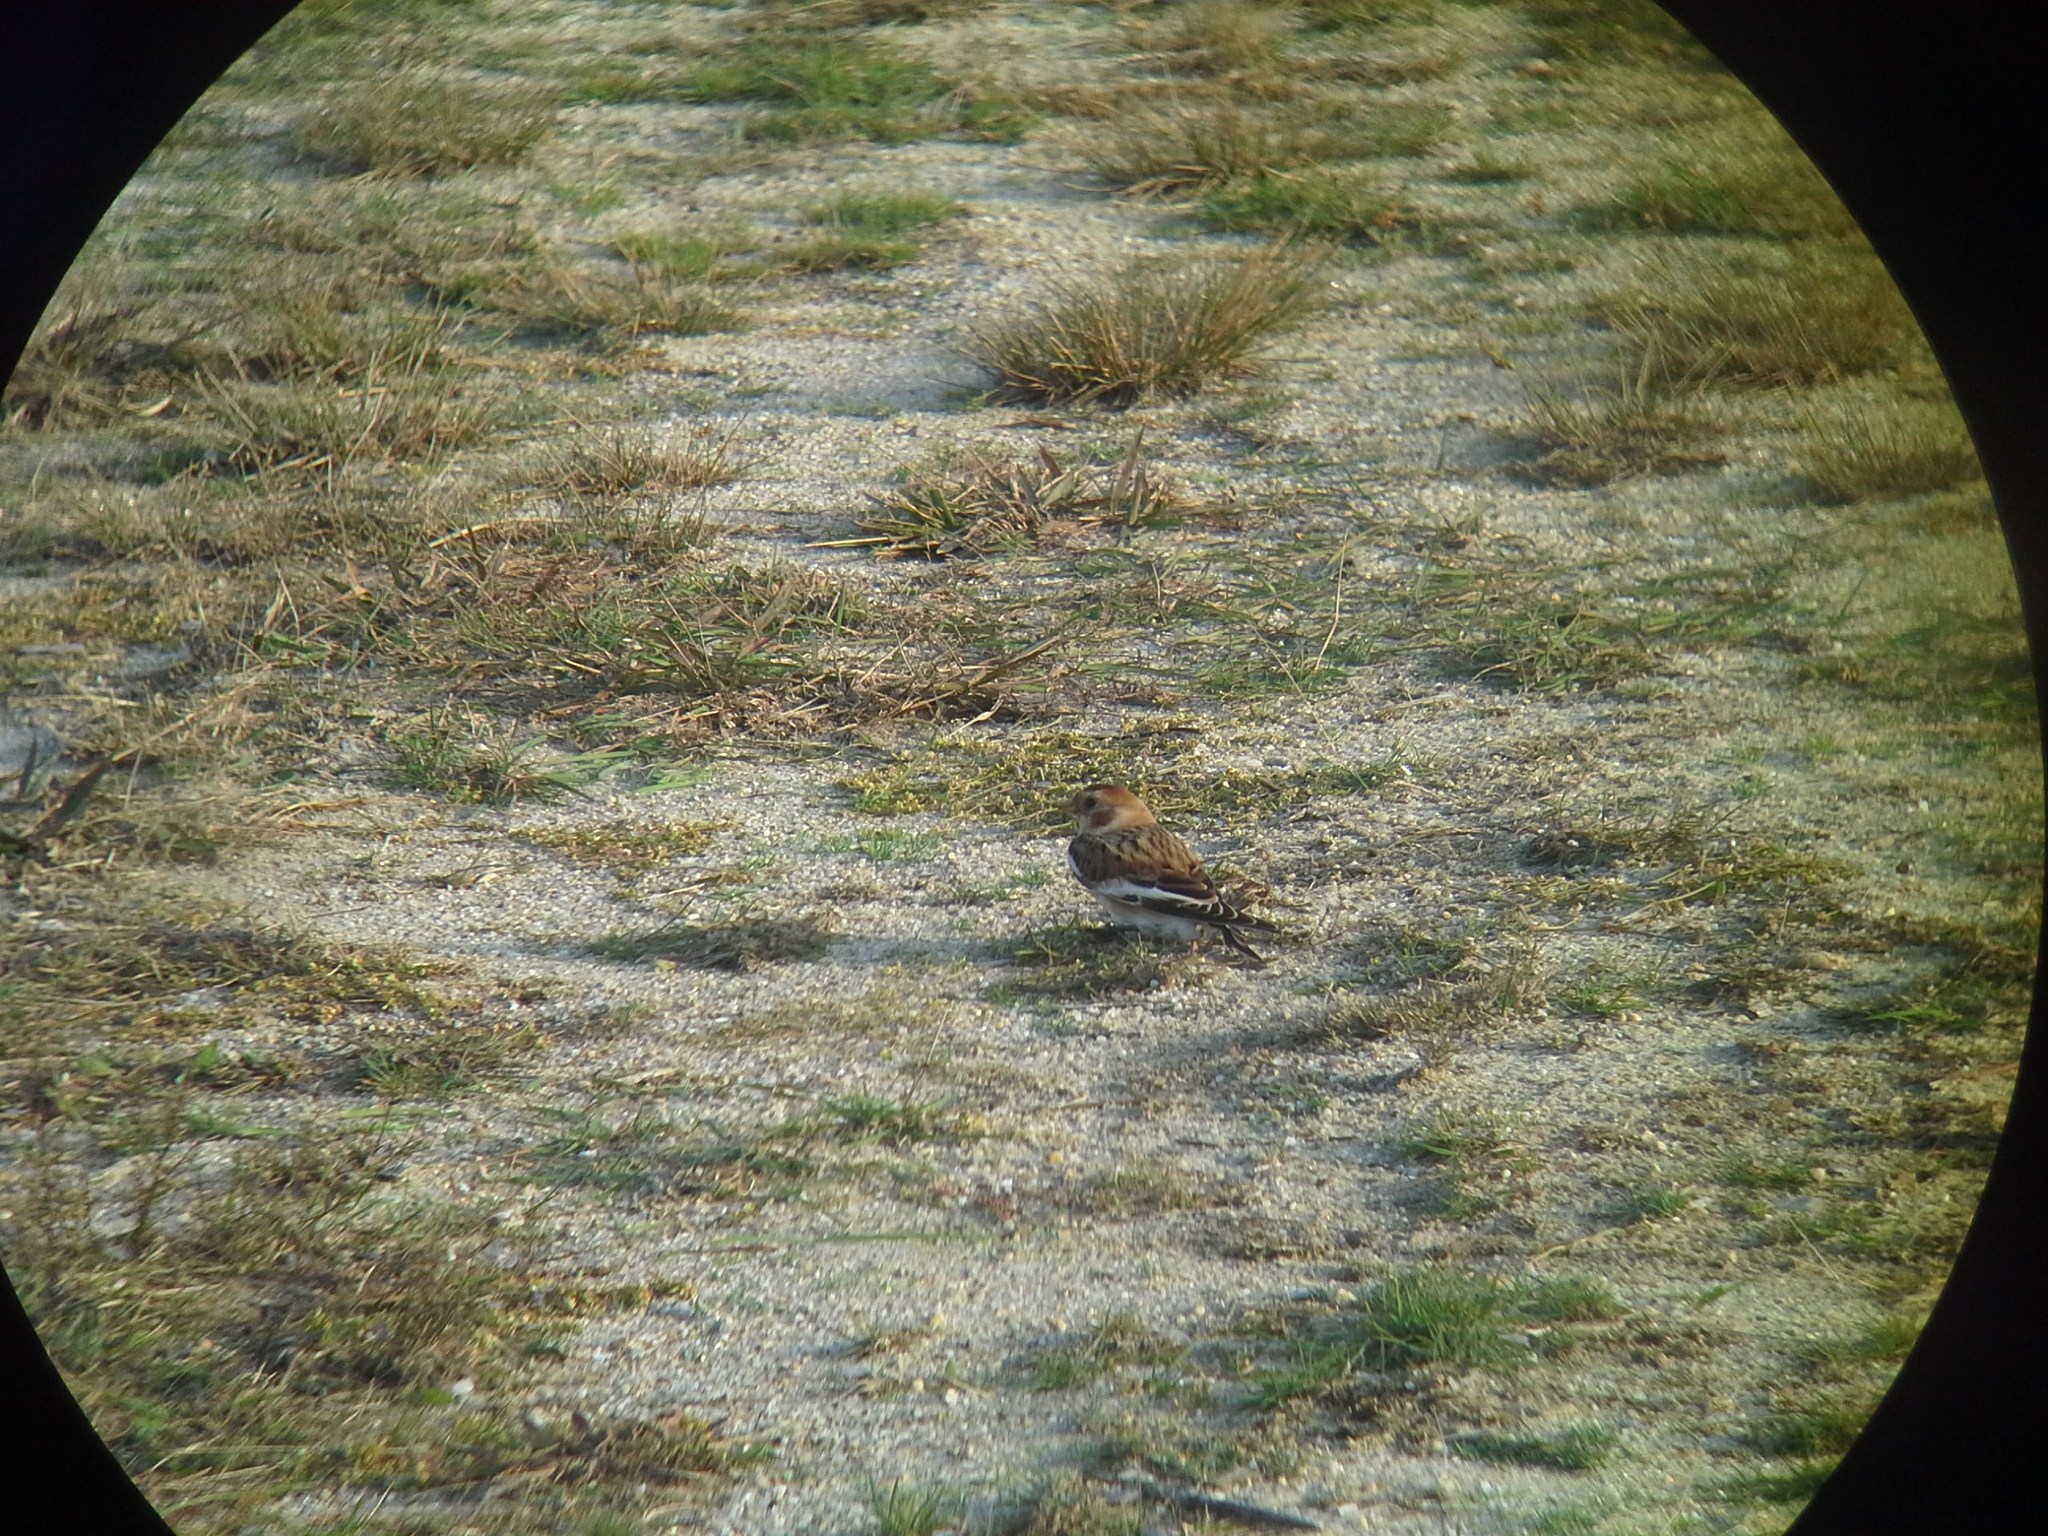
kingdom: Animalia
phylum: Chordata
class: Aves
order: Passeriformes
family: Calcariidae
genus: Plectrophenax
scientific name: Plectrophenax nivalis
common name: Snow bunting
